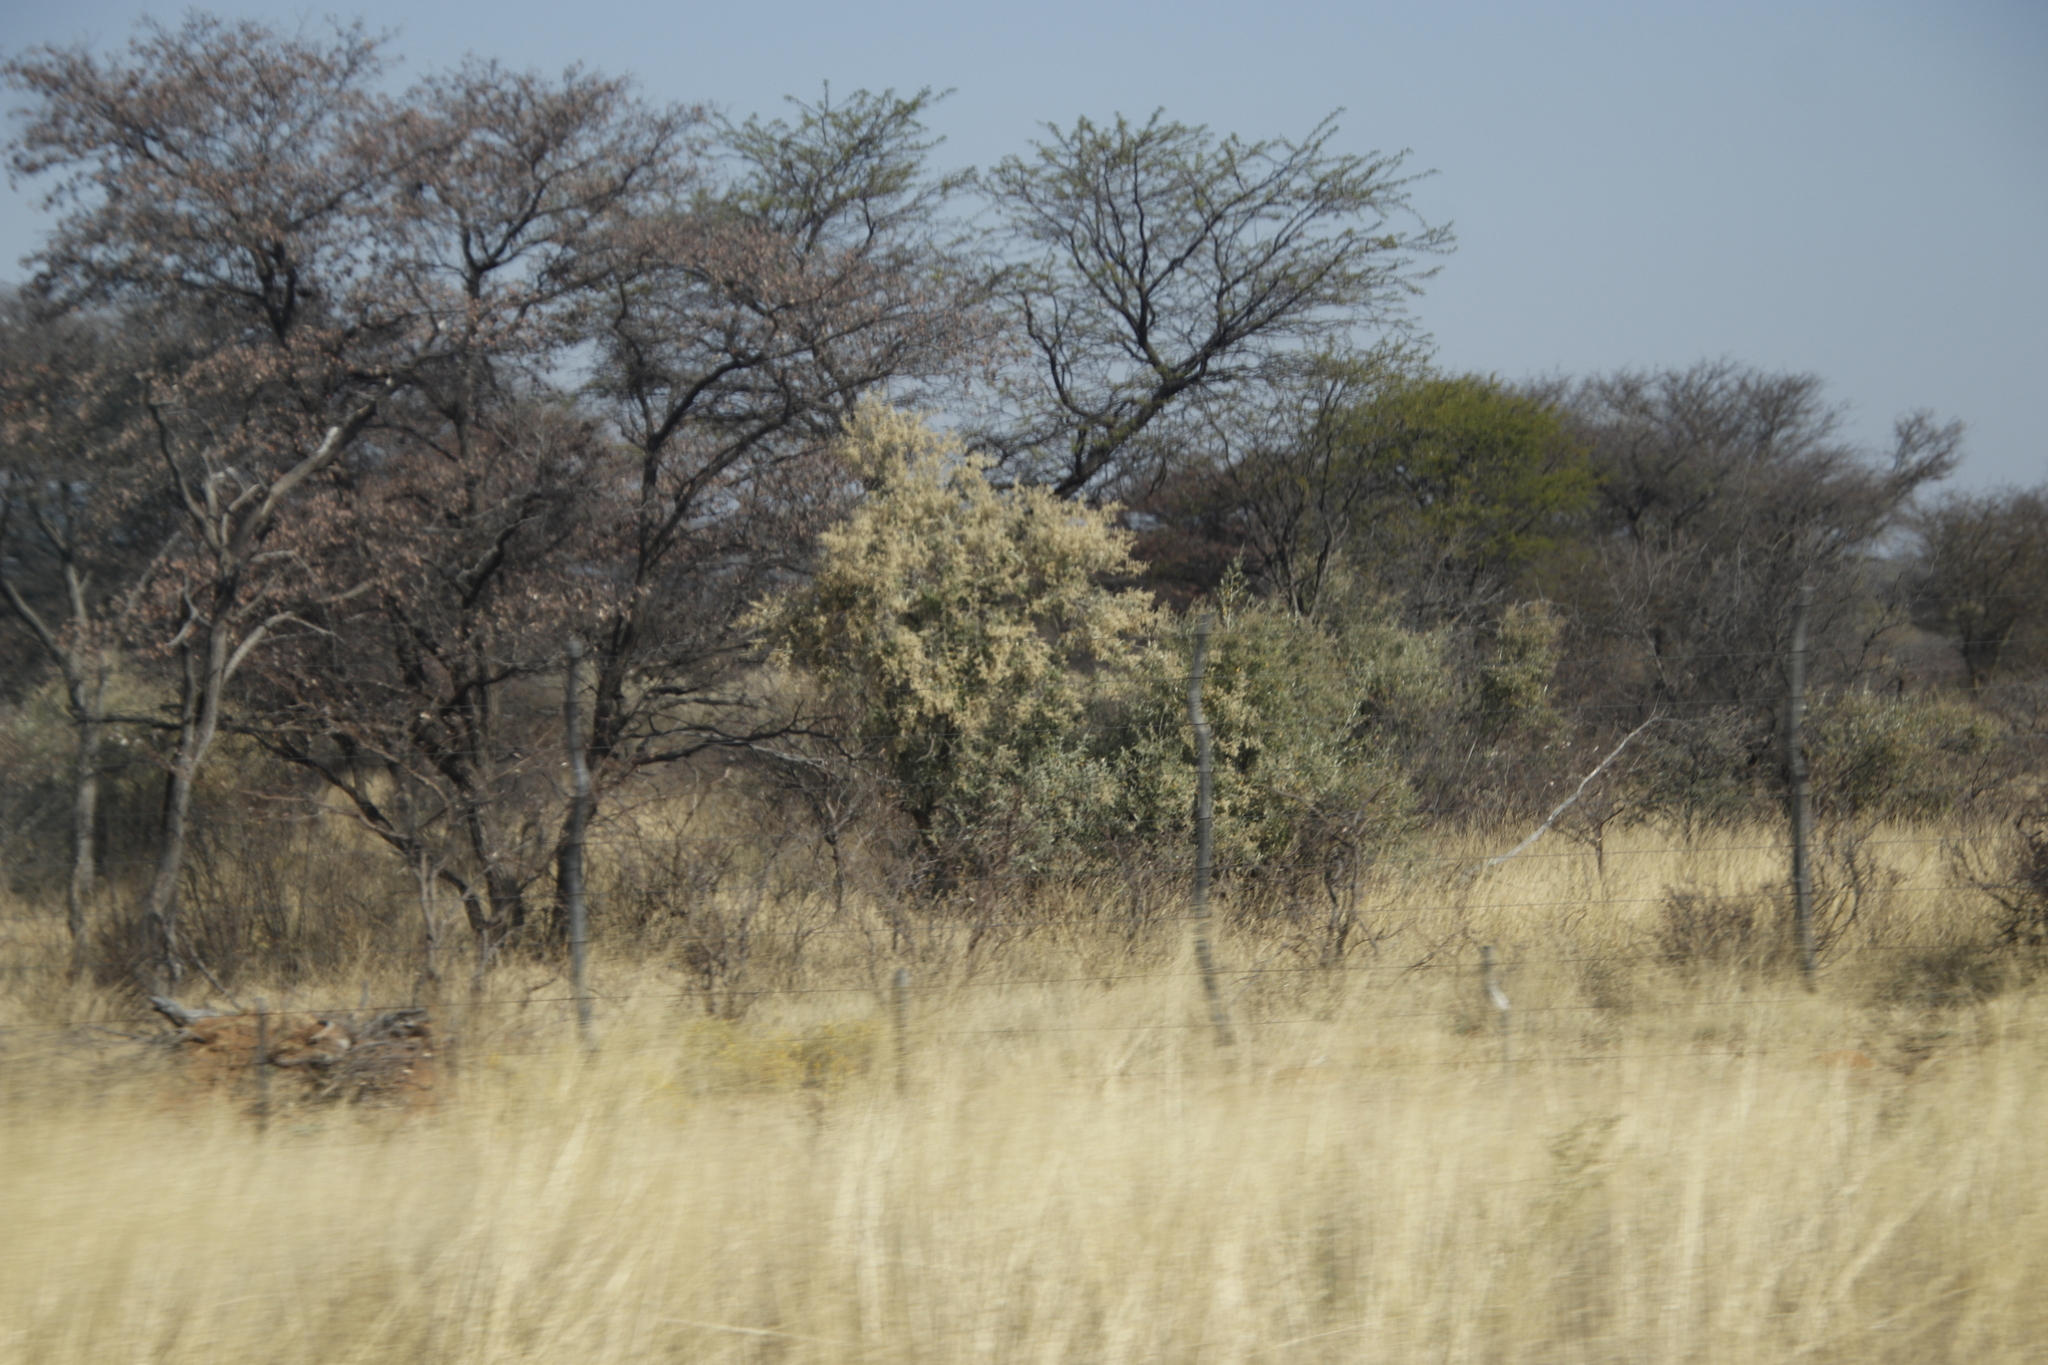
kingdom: Plantae
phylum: Tracheophyta
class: Magnoliopsida
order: Fabales
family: Fabaceae
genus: Senegalia
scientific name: Senegalia mellifera
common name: Hookthorn
